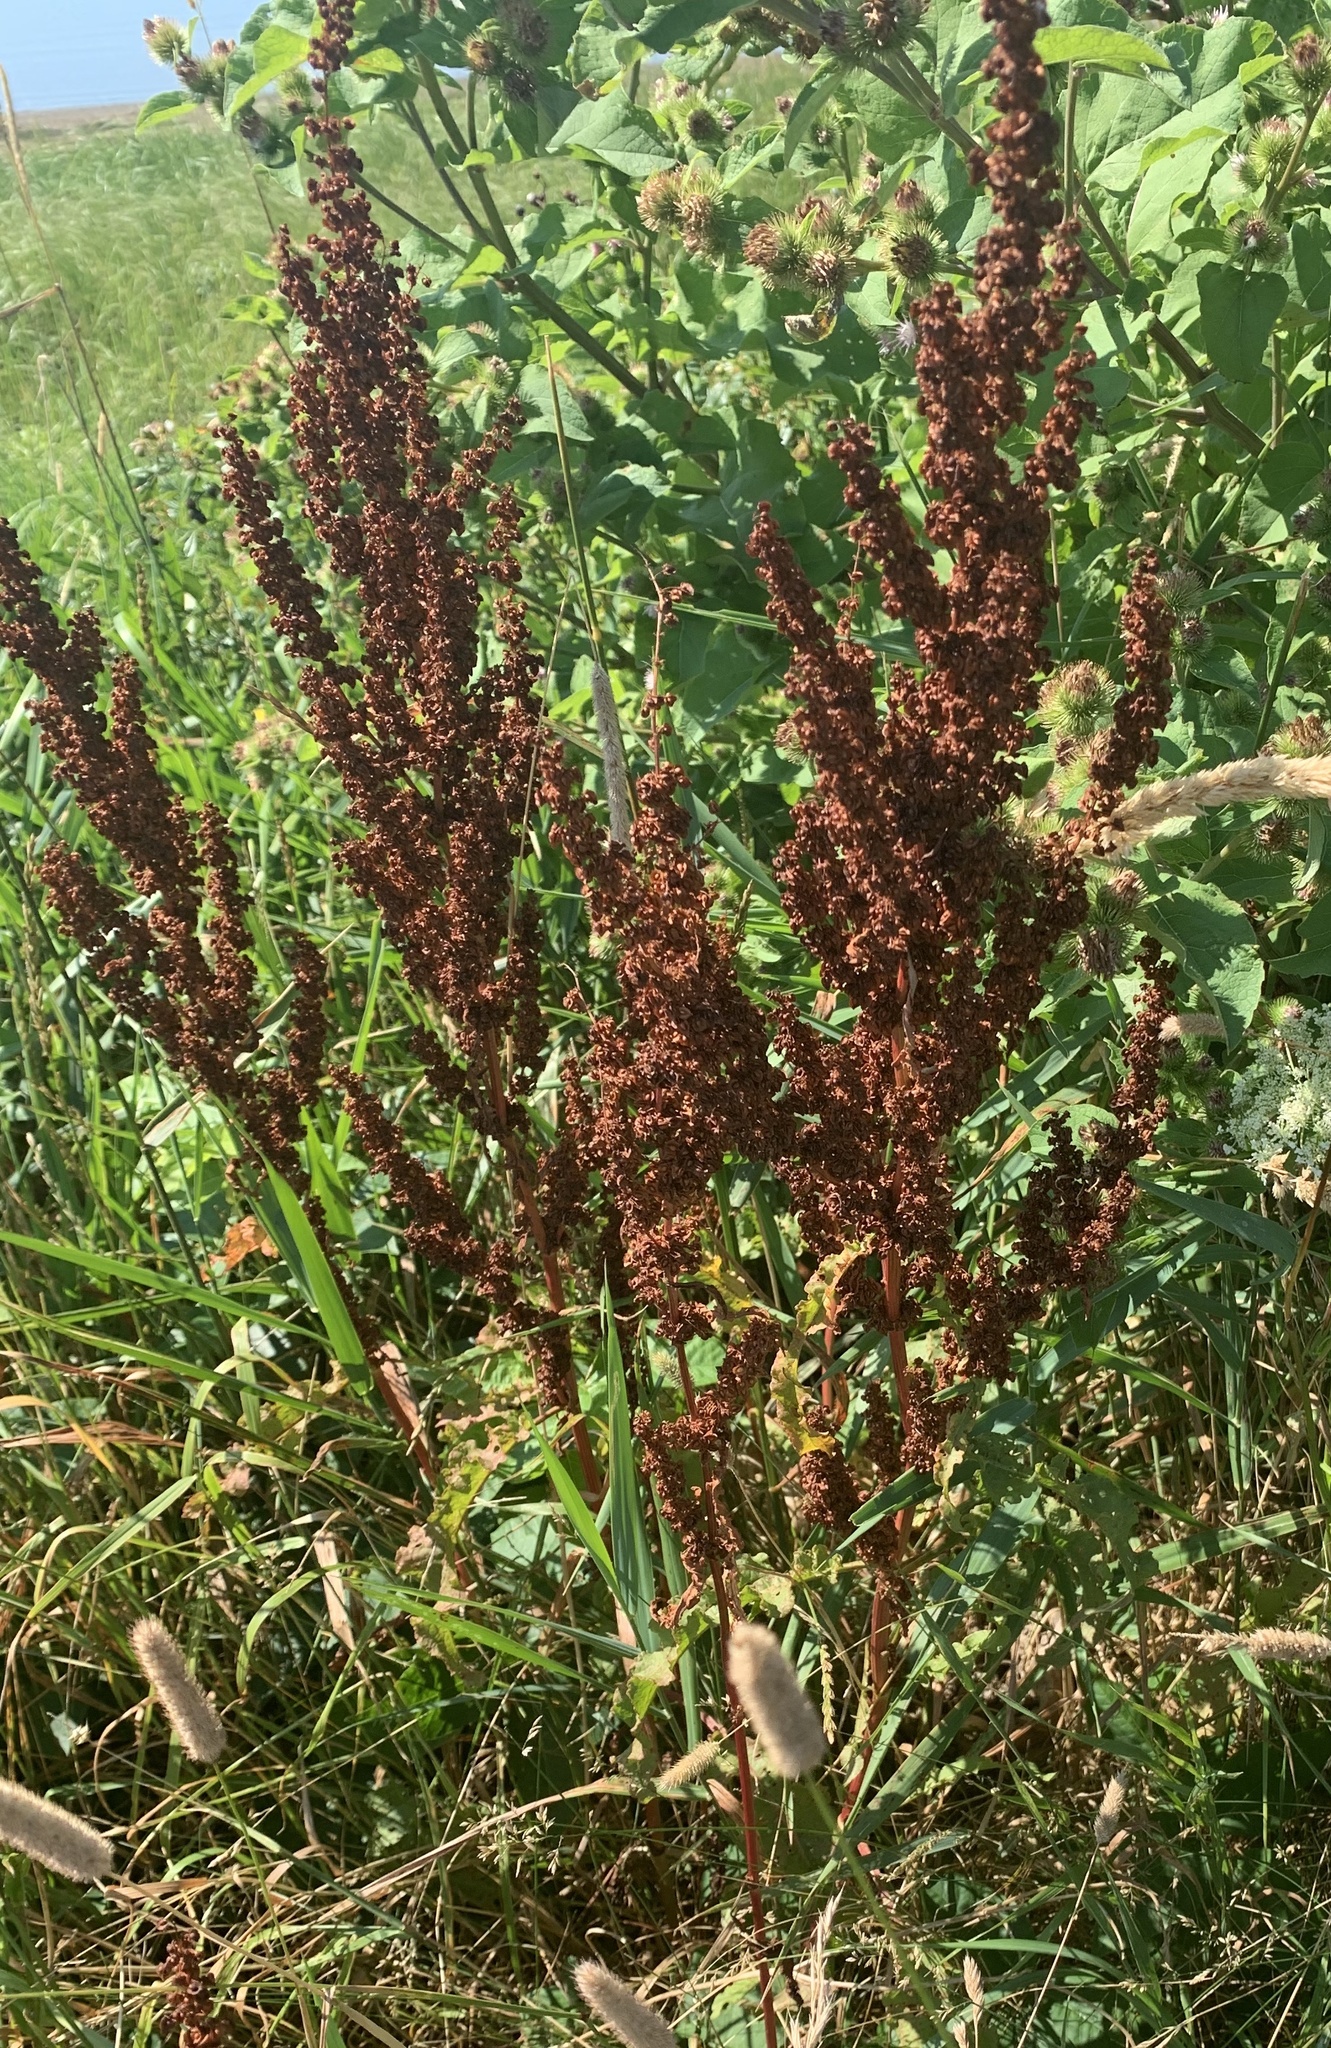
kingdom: Plantae
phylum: Tracheophyta
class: Magnoliopsida
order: Caryophyllales
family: Polygonaceae
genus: Rumex
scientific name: Rumex crispus
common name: Curled dock
